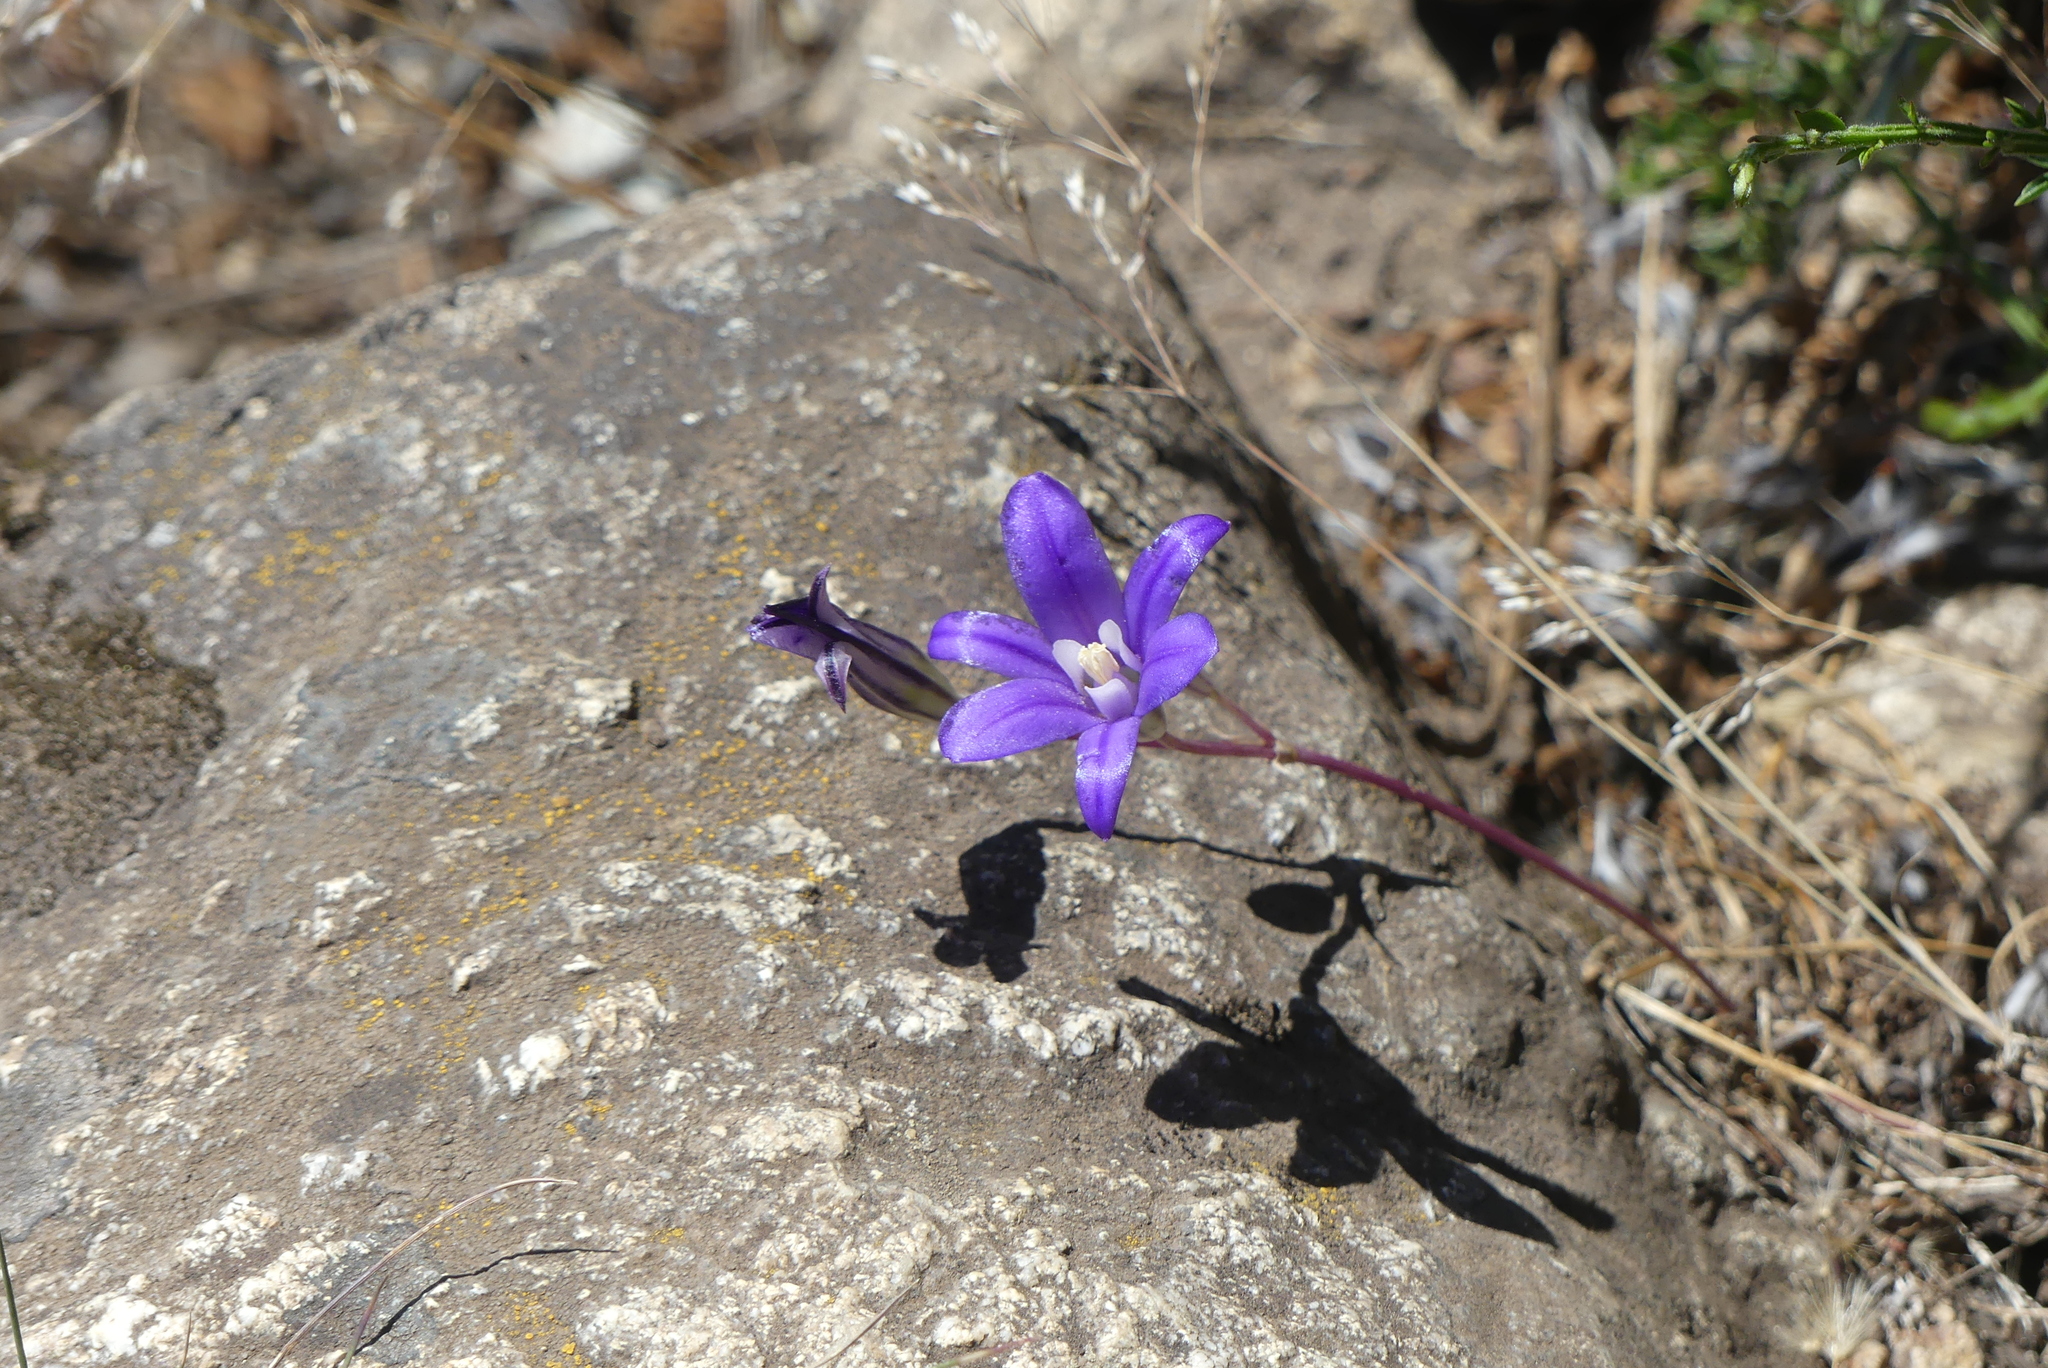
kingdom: Plantae
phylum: Tracheophyta
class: Liliopsida
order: Asparagales
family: Asparagaceae
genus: Brodiaea
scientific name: Brodiaea coronaria
